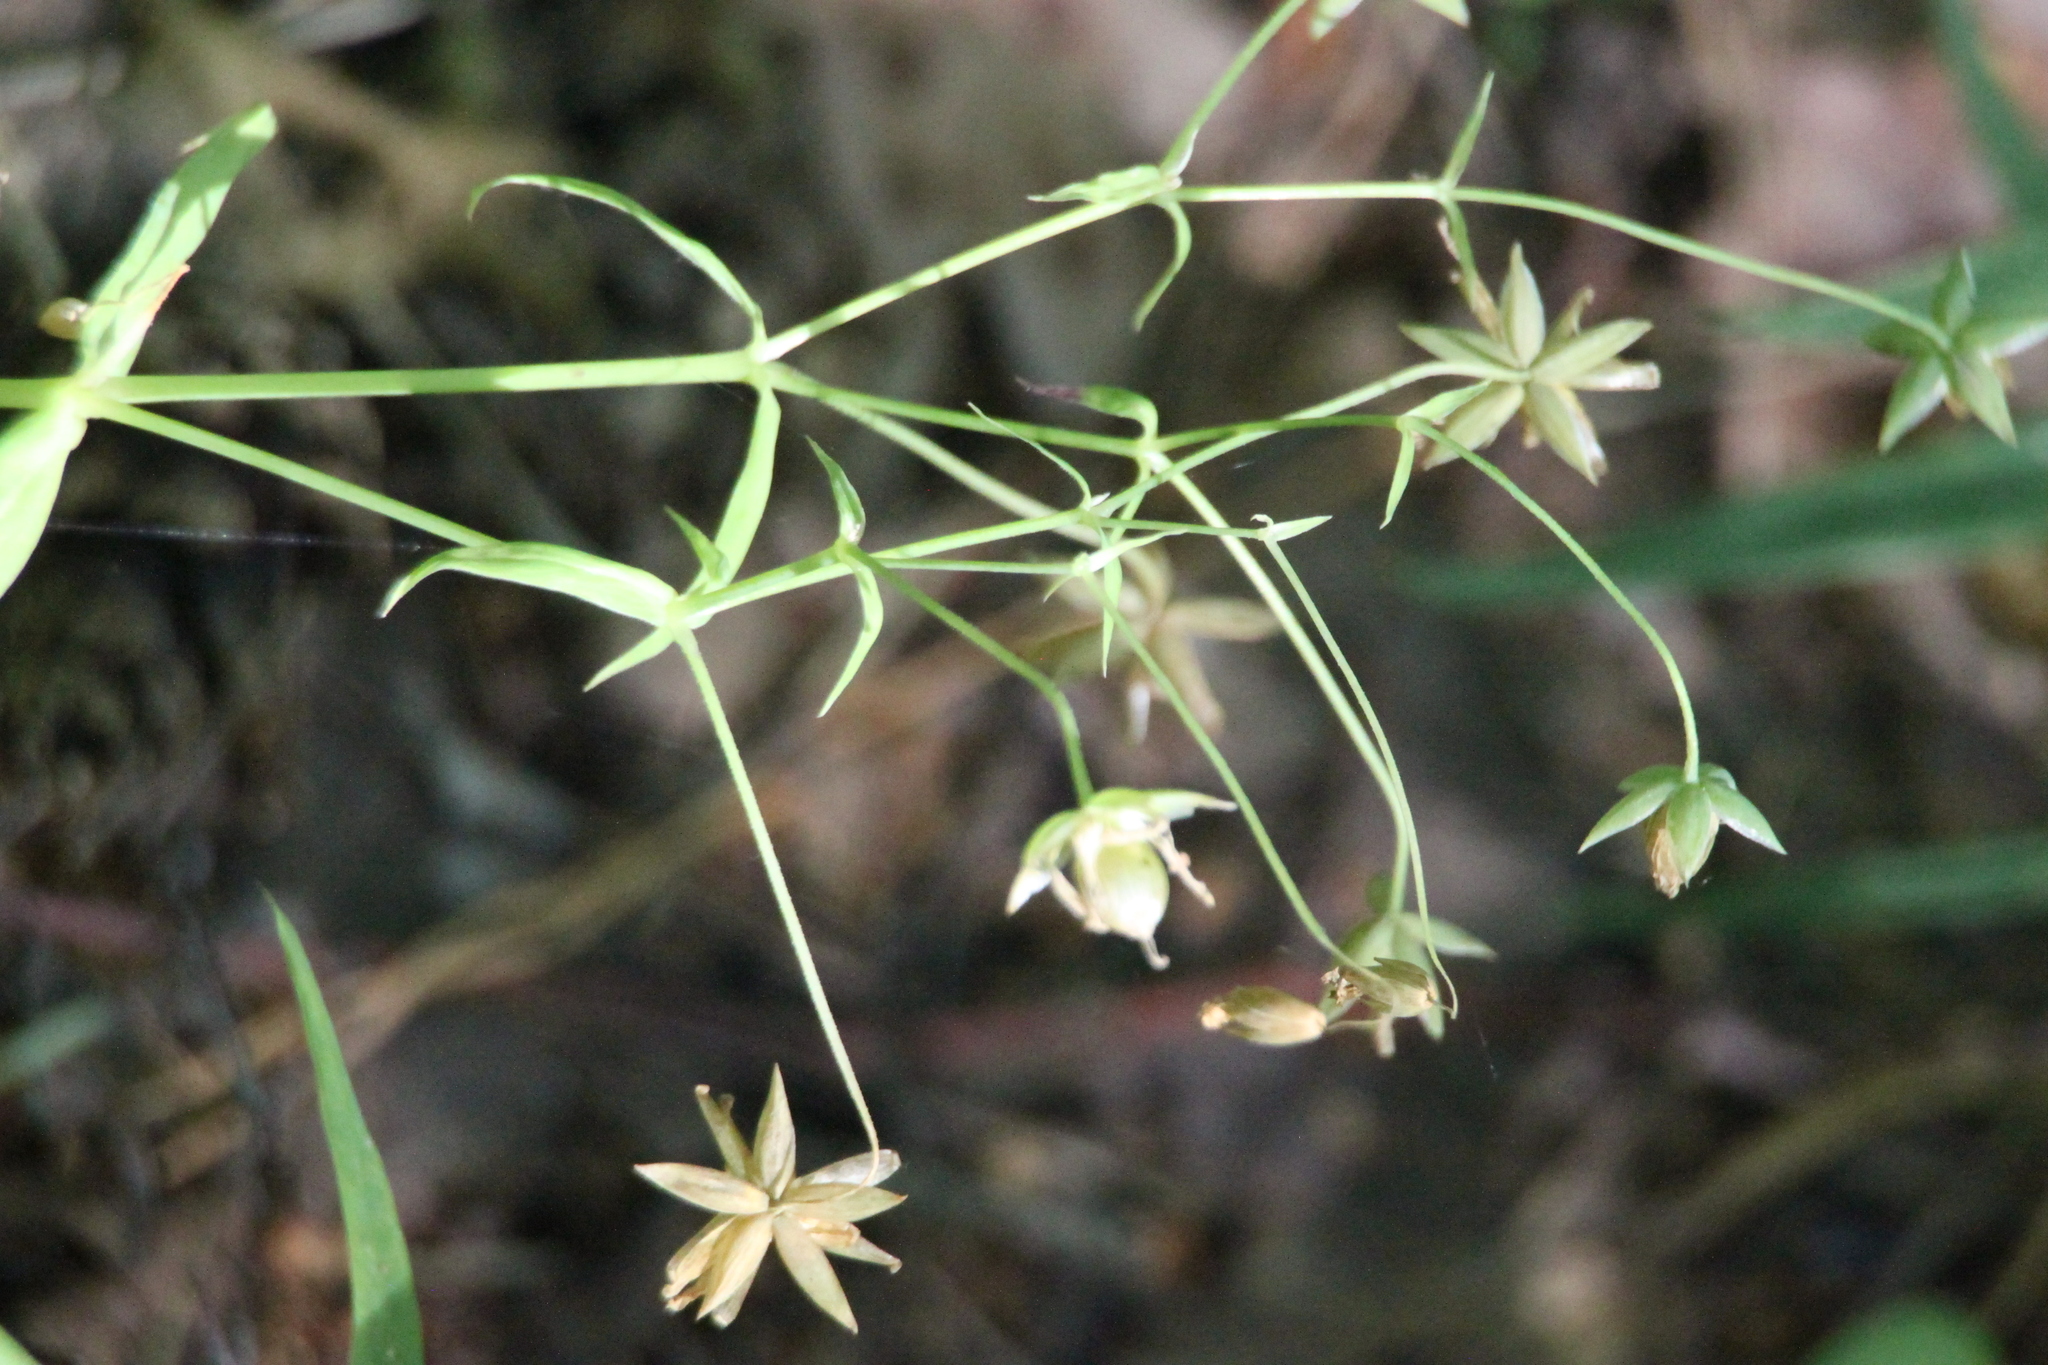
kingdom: Plantae
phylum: Tracheophyta
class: Magnoliopsida
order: Caryophyllales
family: Caryophyllaceae
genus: Rabelera
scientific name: Rabelera holostea
